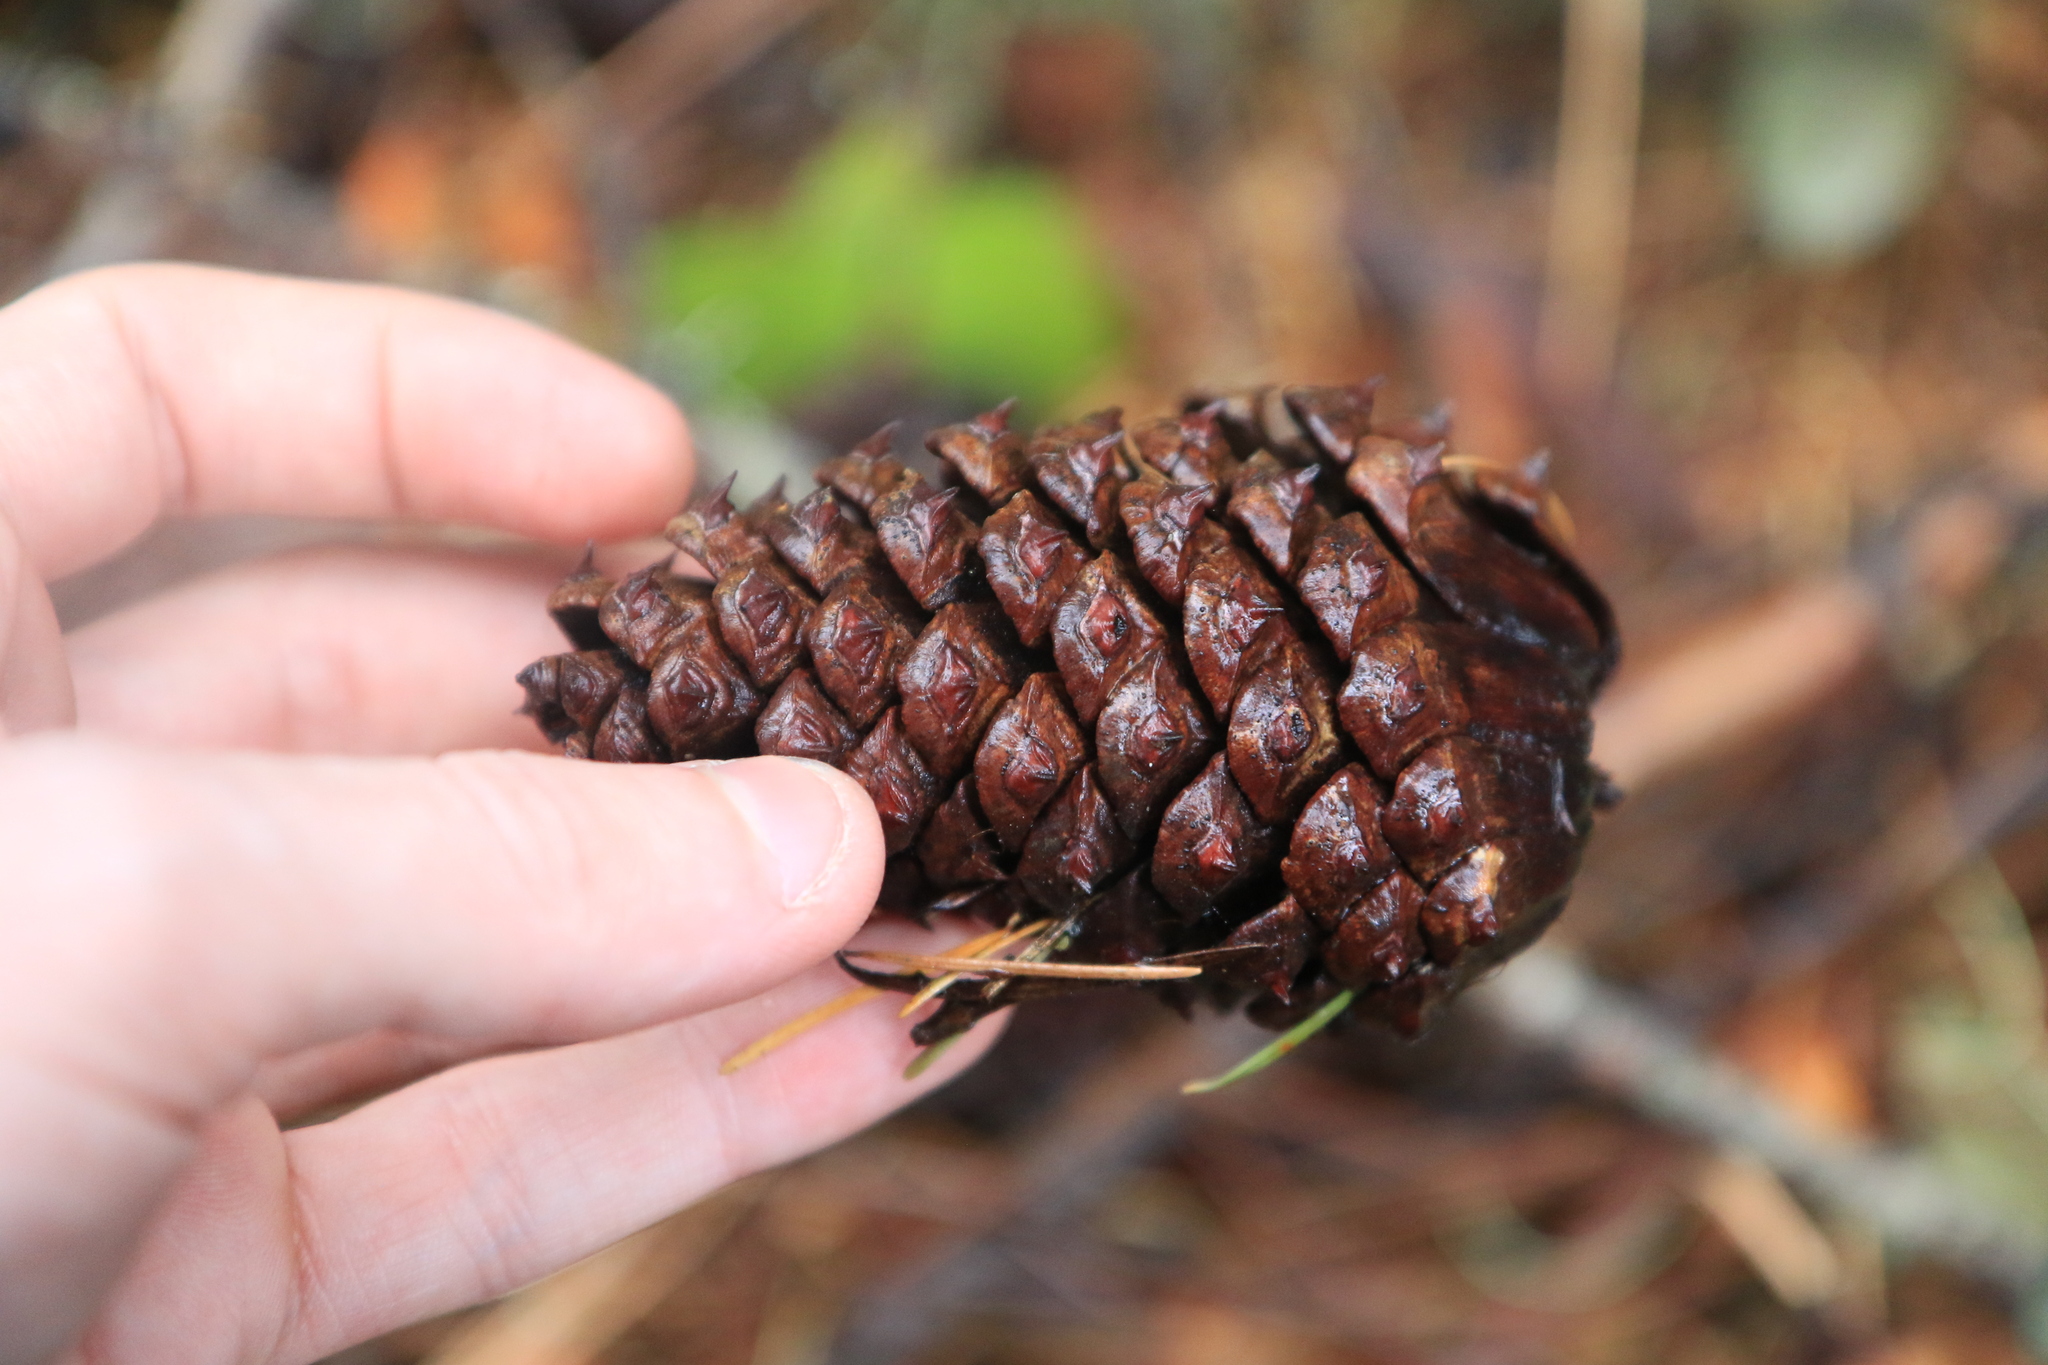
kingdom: Plantae
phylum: Tracheophyta
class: Pinopsida
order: Pinales
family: Pinaceae
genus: Pinus
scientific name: Pinus ponderosa
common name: Western yellow-pine
